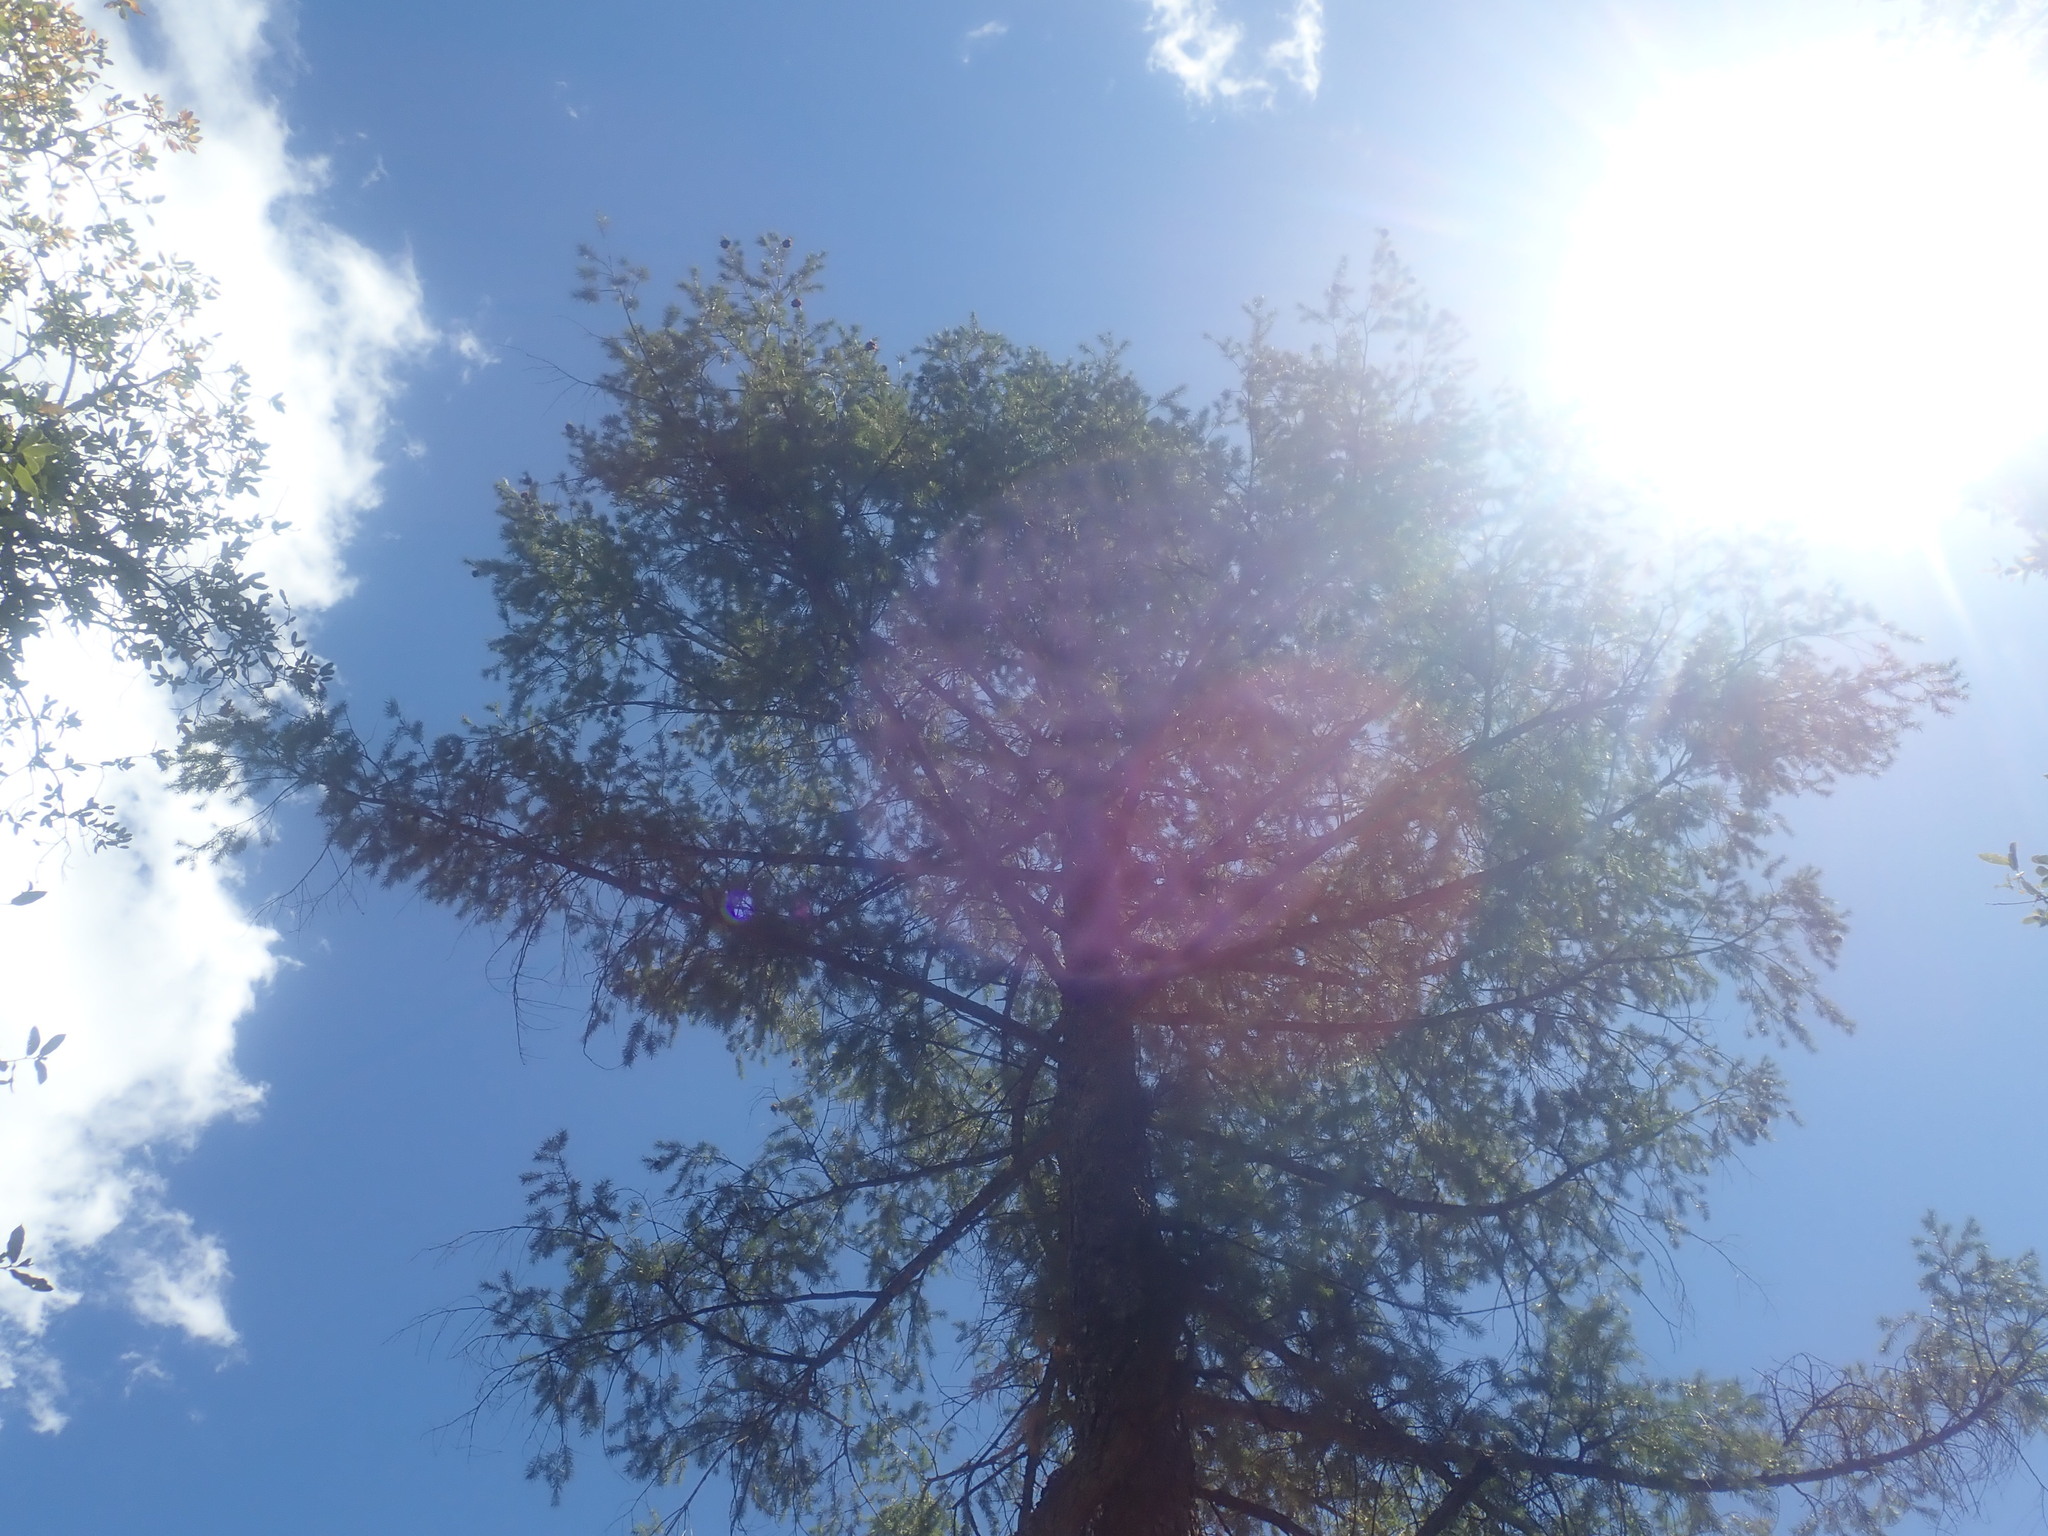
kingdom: Plantae
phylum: Tracheophyta
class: Pinopsida
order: Pinales
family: Pinaceae
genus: Pseudotsuga
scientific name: Pseudotsuga menziesii
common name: Douglas fir
